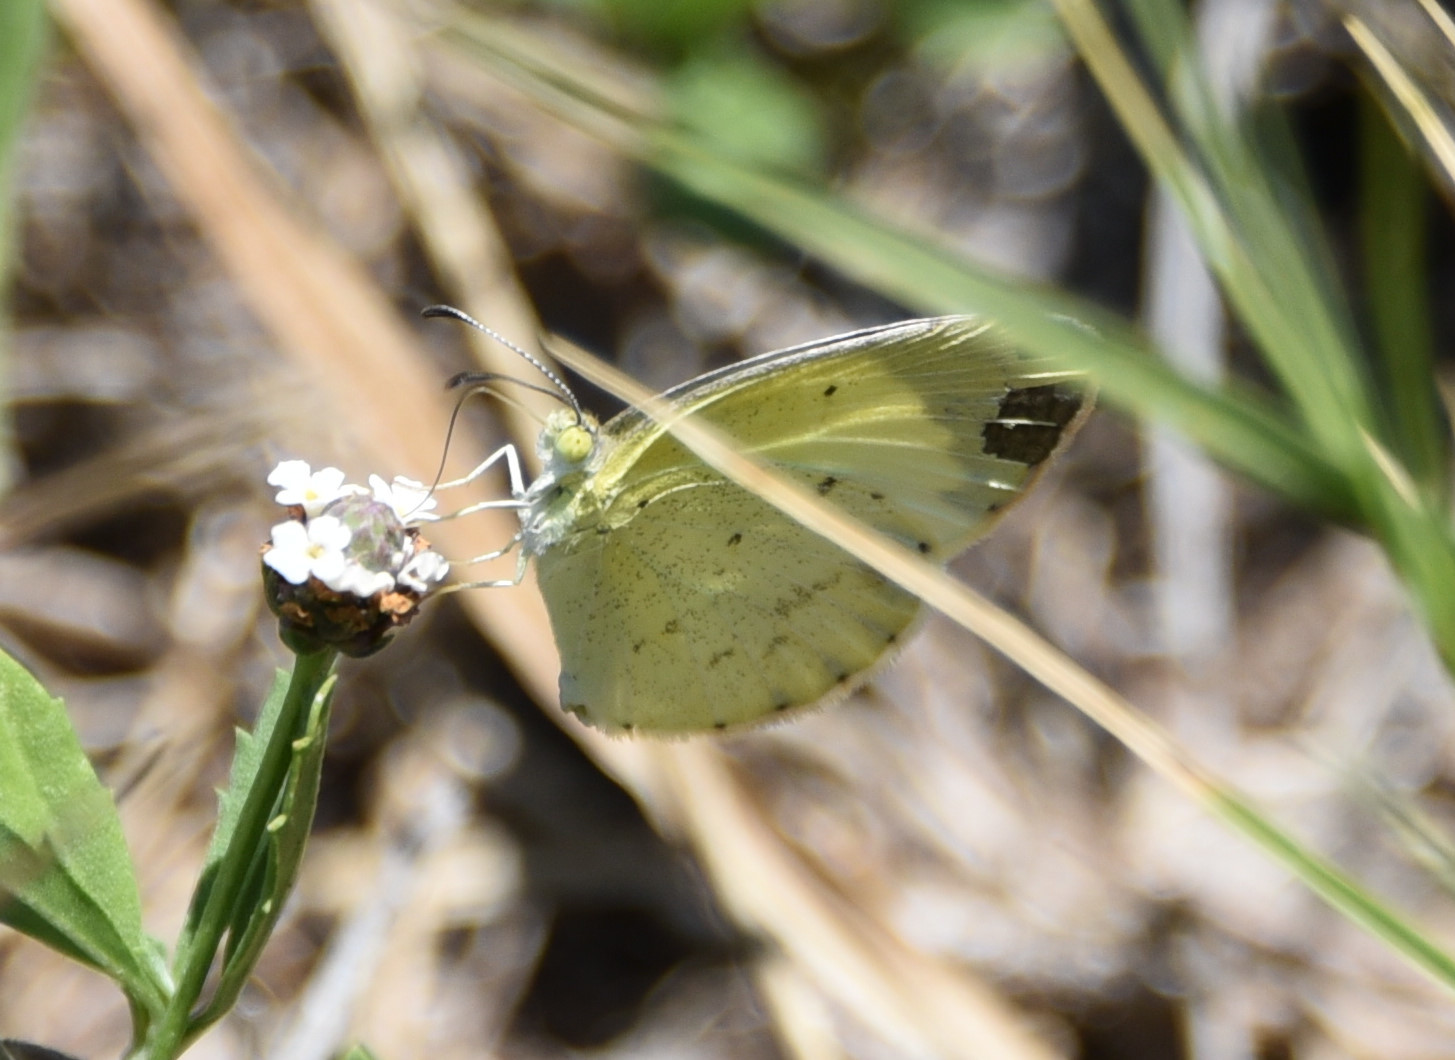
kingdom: Animalia
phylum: Arthropoda
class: Insecta
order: Lepidoptera
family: Pieridae
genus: Pyrisitia
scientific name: Pyrisitia lisa
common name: Little yellow
